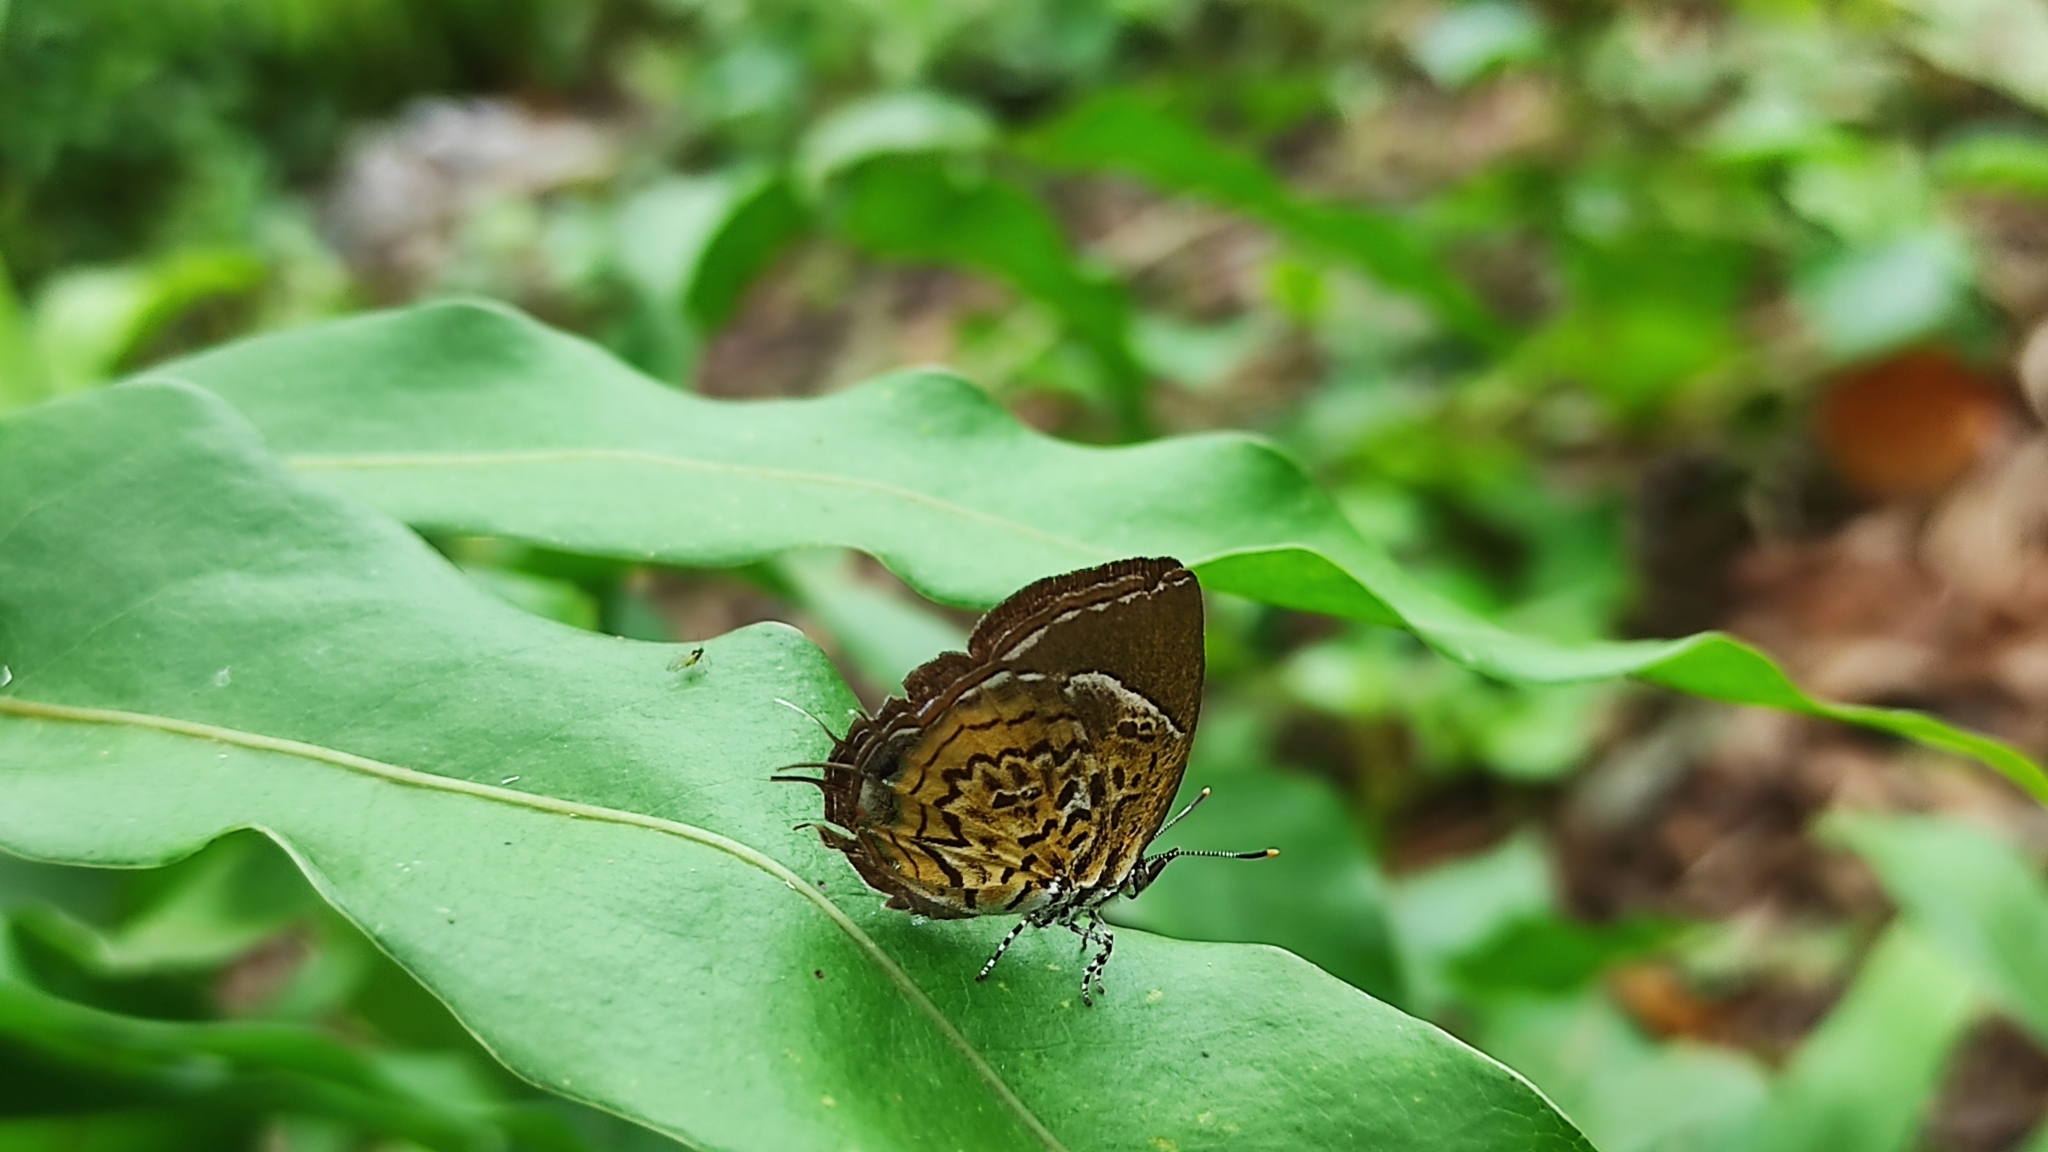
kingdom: Animalia
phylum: Arthropoda
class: Insecta
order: Lepidoptera
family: Lycaenidae
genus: Rathinda
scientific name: Rathinda amor
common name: Monkey puzzle
